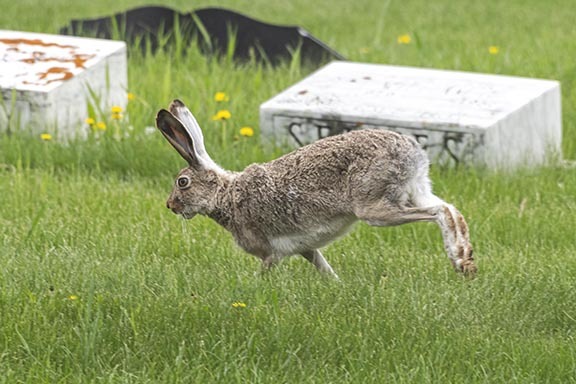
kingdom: Animalia
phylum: Chordata
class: Mammalia
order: Lagomorpha
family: Leporidae
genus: Lepus
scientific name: Lepus townsendii
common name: White-tailed jackrabbit
